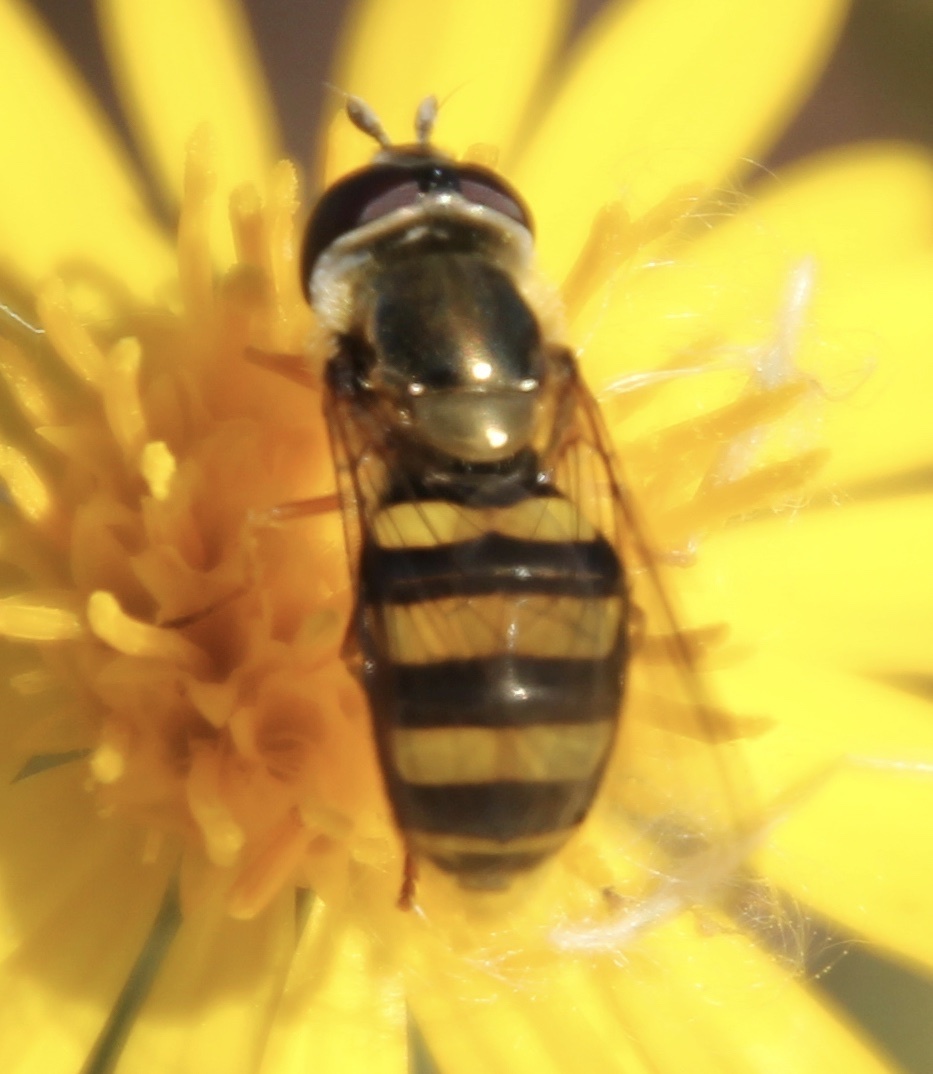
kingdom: Animalia
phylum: Arthropoda
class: Insecta
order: Diptera
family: Syrphidae
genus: Eupeodes
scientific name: Eupeodes
